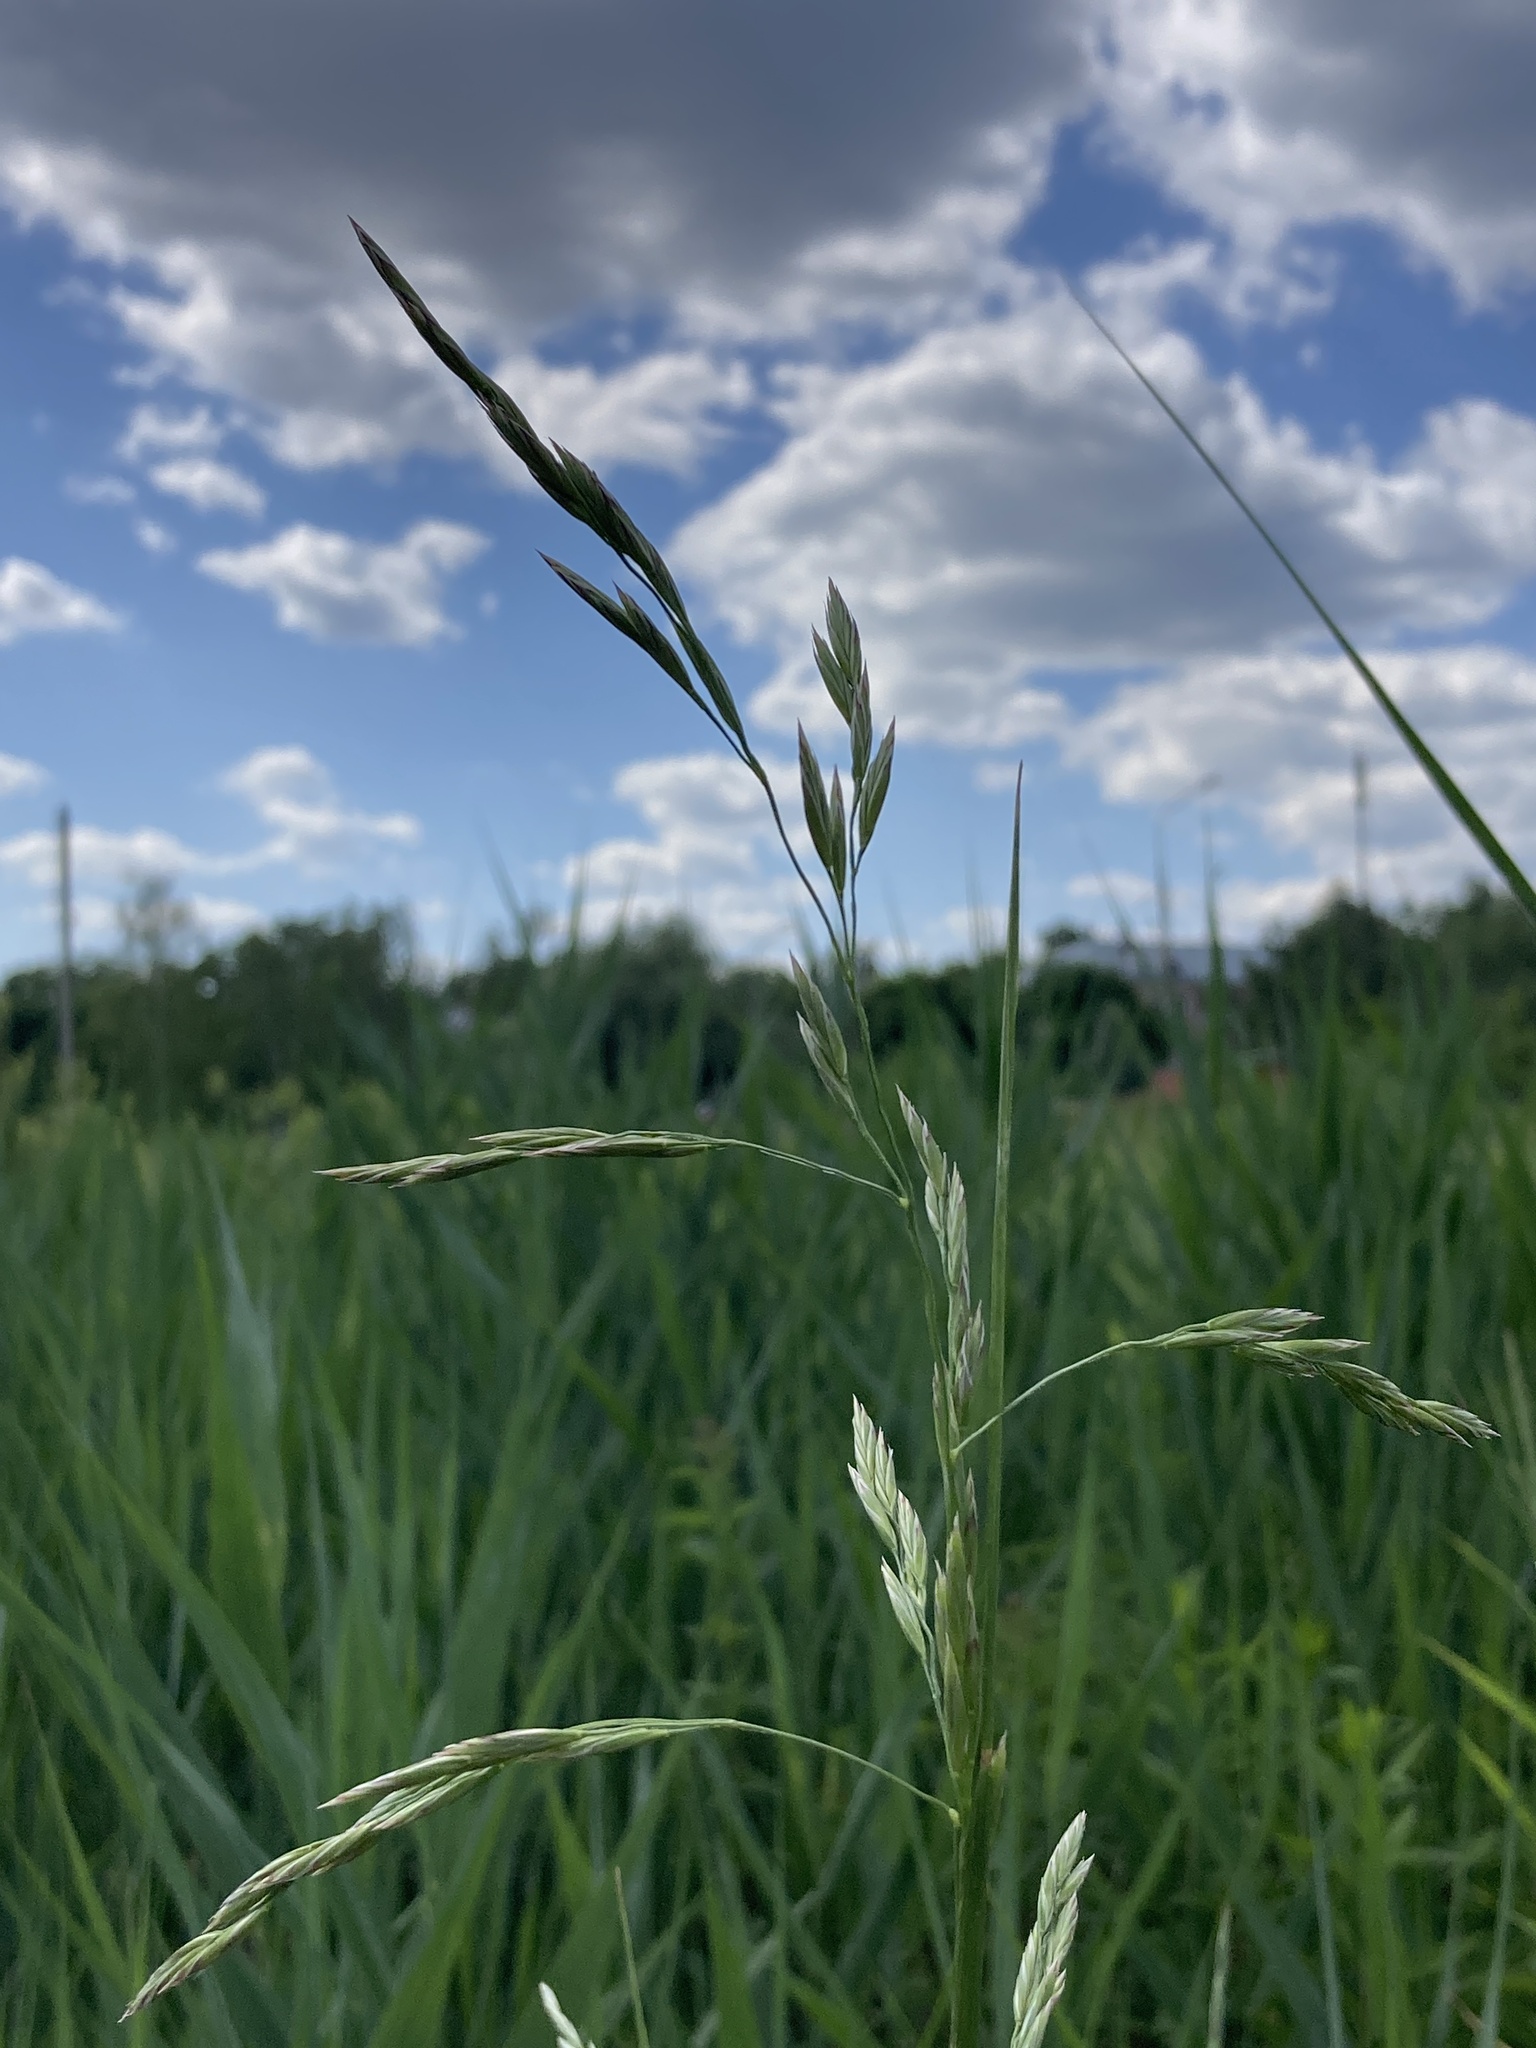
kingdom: Plantae
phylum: Tracheophyta
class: Liliopsida
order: Poales
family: Poaceae
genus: Lolium
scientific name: Lolium arundinaceum
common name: Reed fescue
